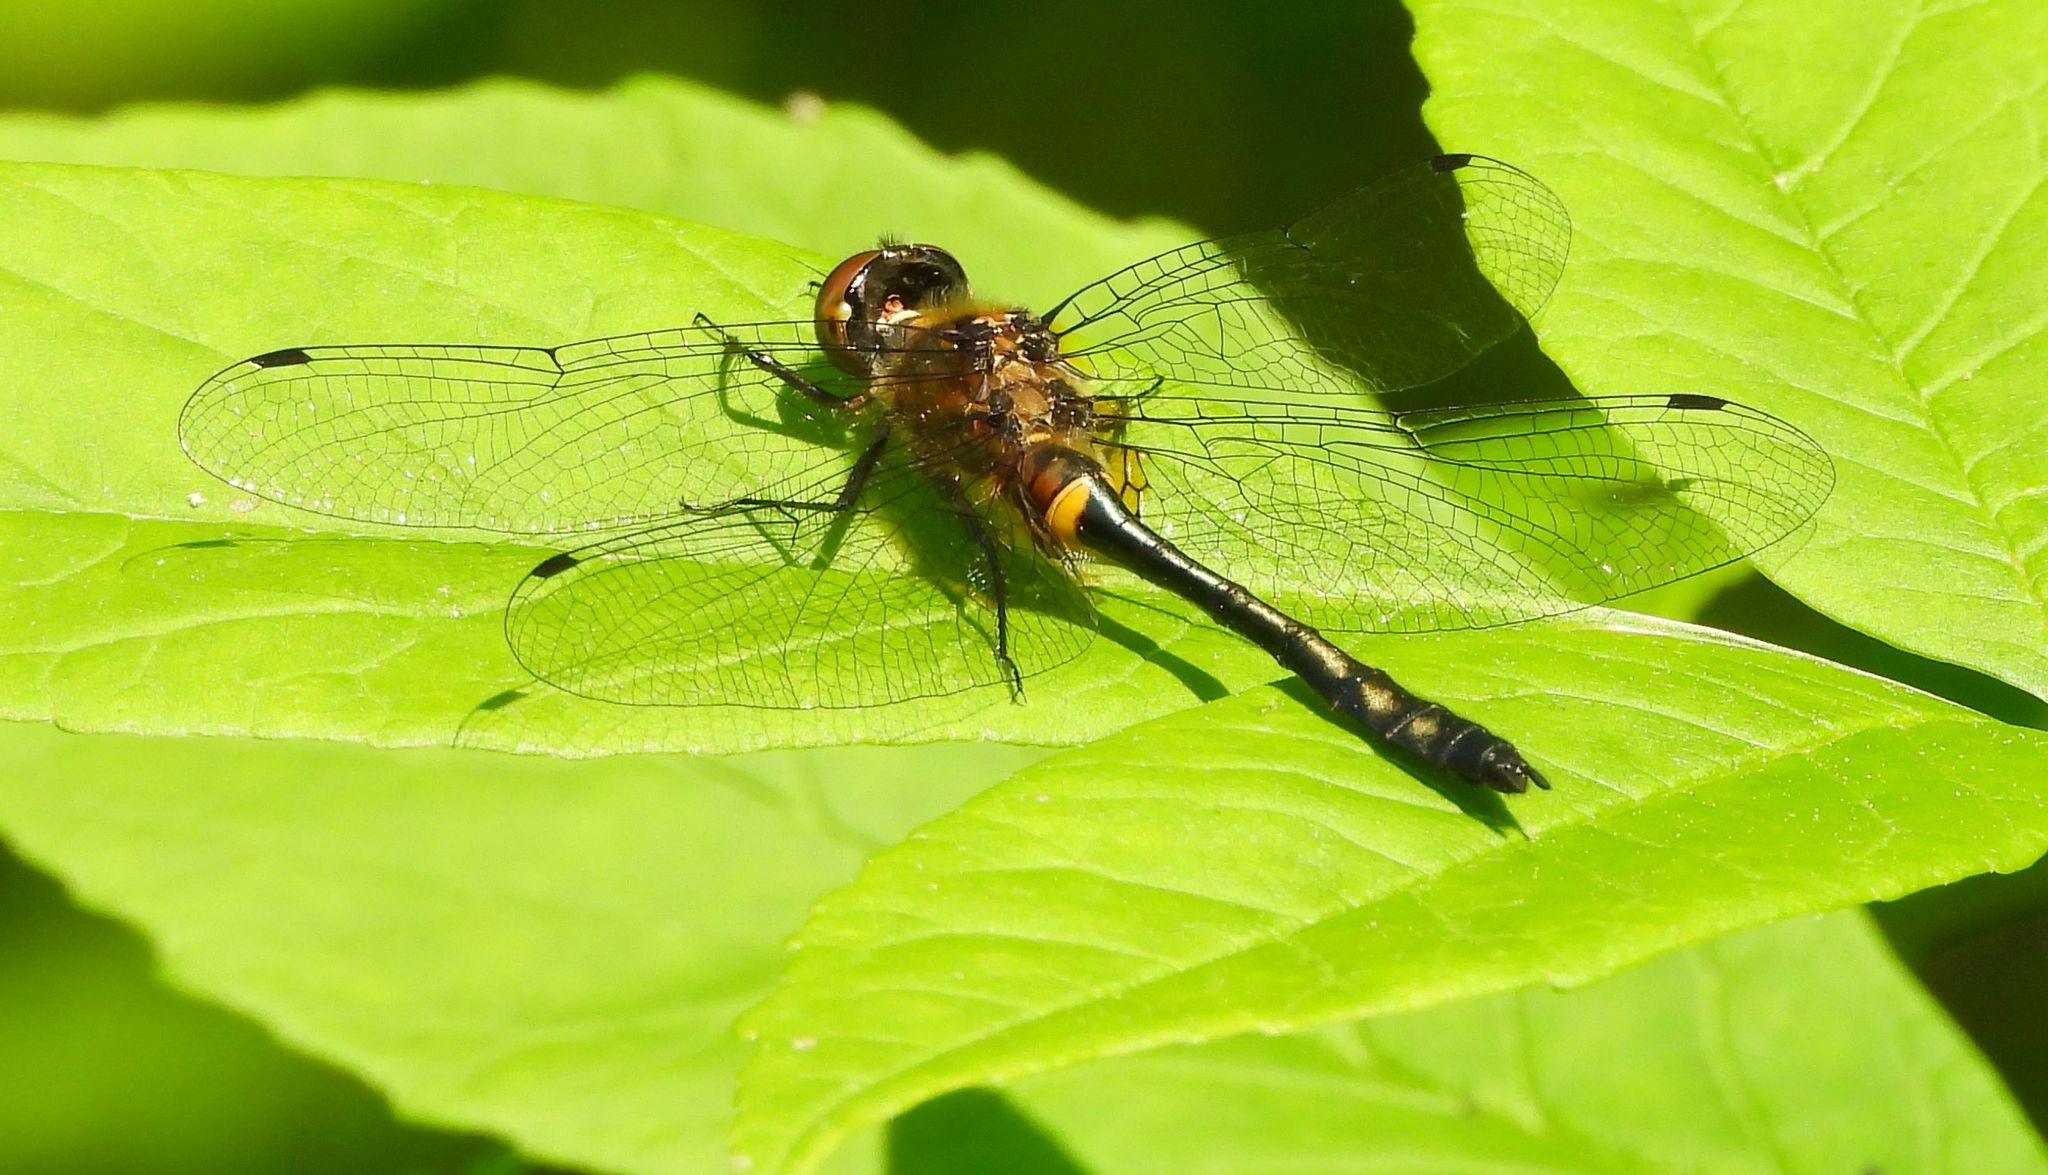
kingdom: Animalia
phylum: Arthropoda
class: Insecta
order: Odonata
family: Corduliidae
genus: Dorocordulia
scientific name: Dorocordulia libera
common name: Racket-tailed emerald
